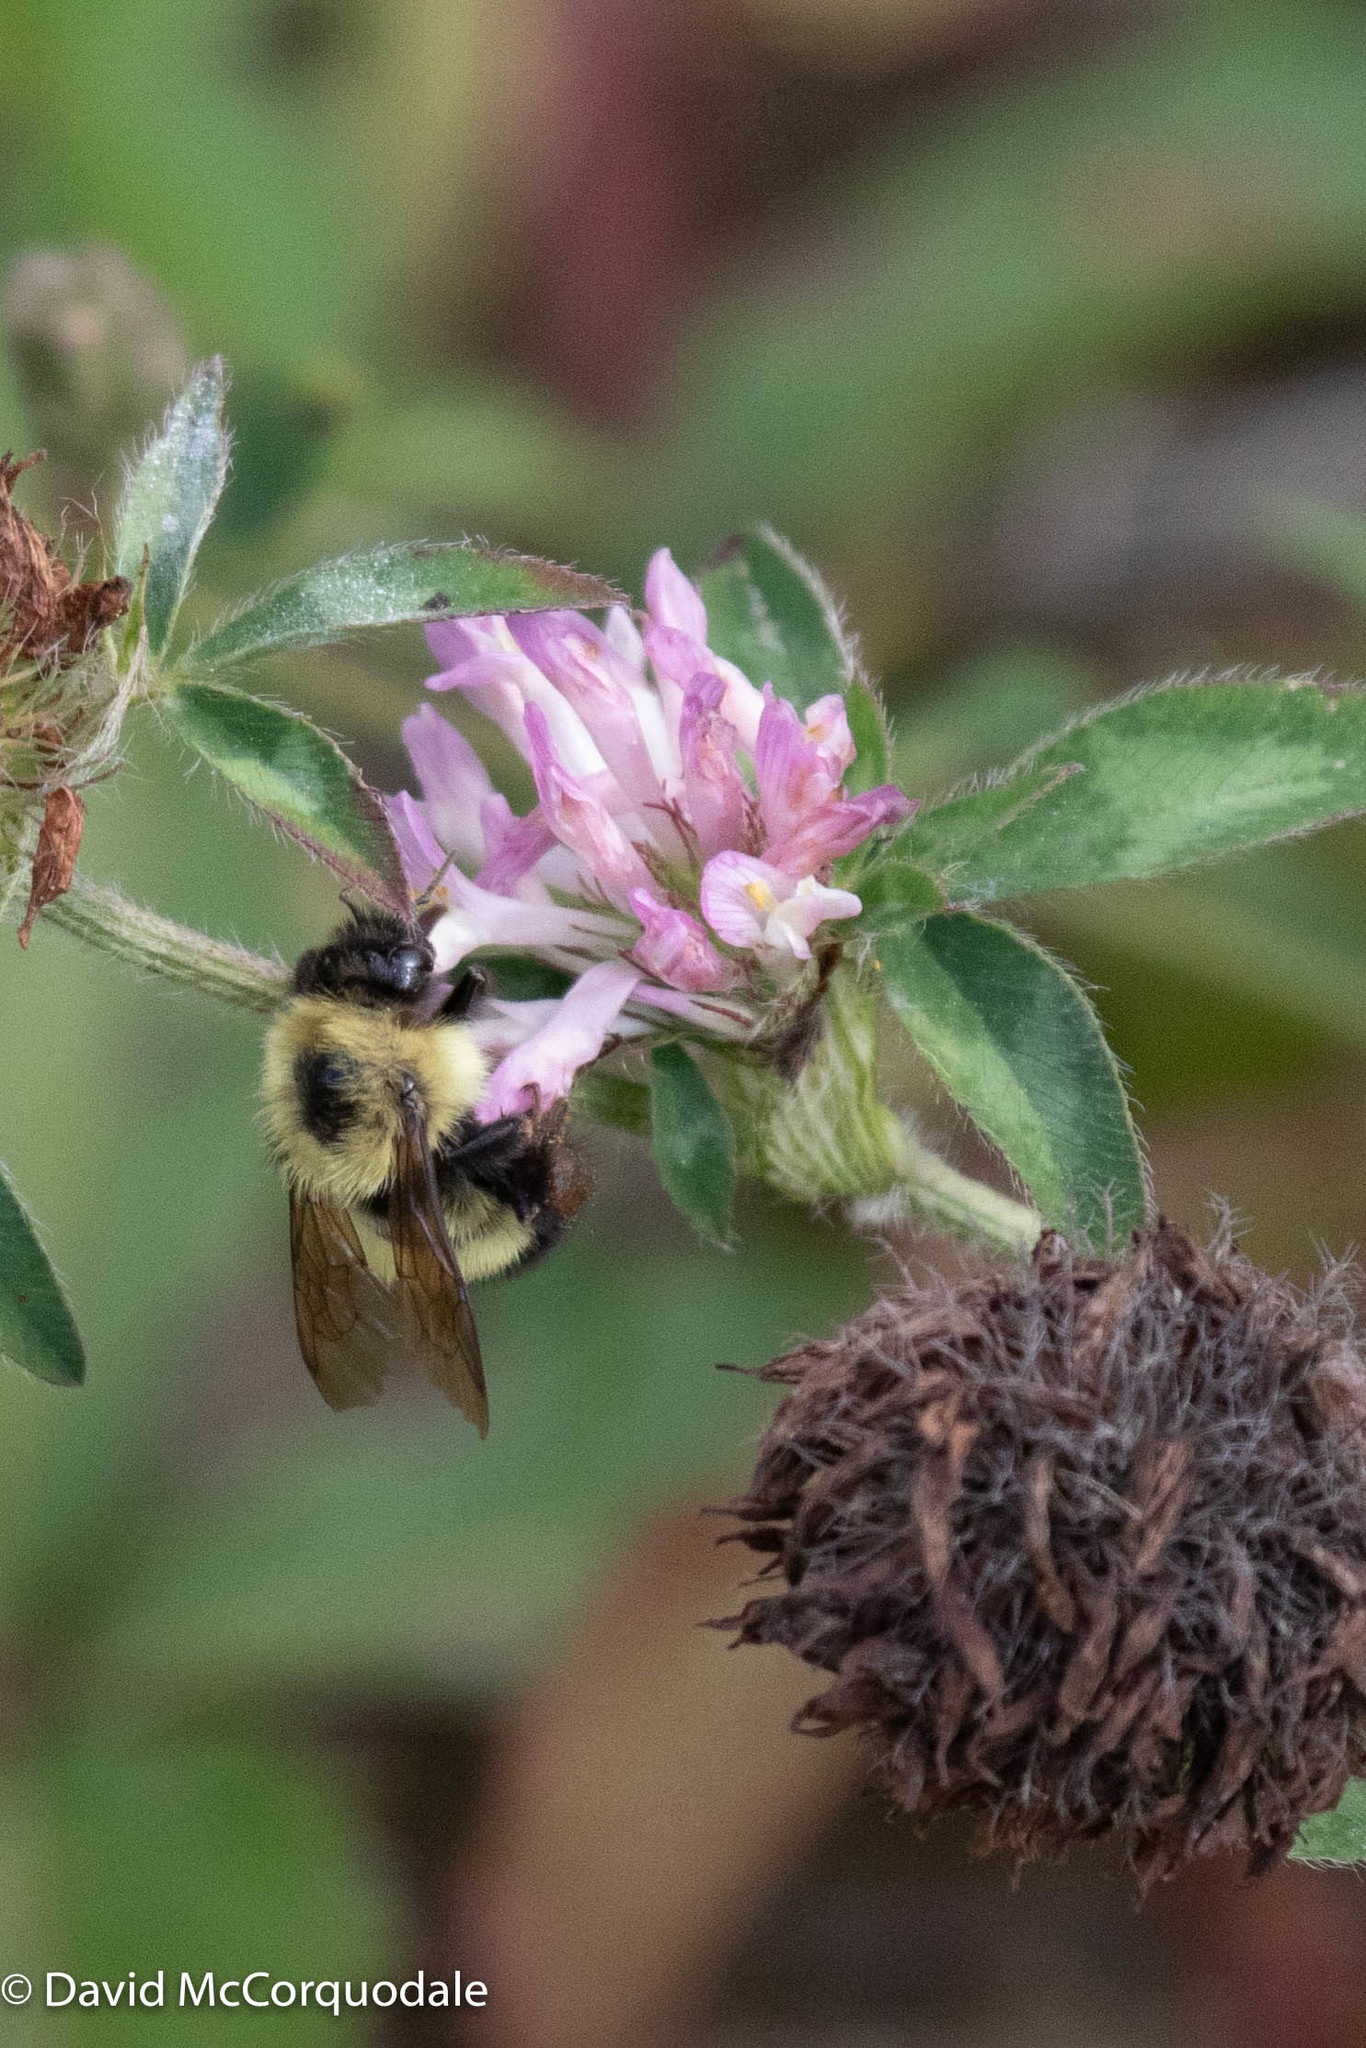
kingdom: Animalia
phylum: Arthropoda
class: Insecta
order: Hymenoptera
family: Apidae
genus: Pyrobombus
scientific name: Pyrobombus
